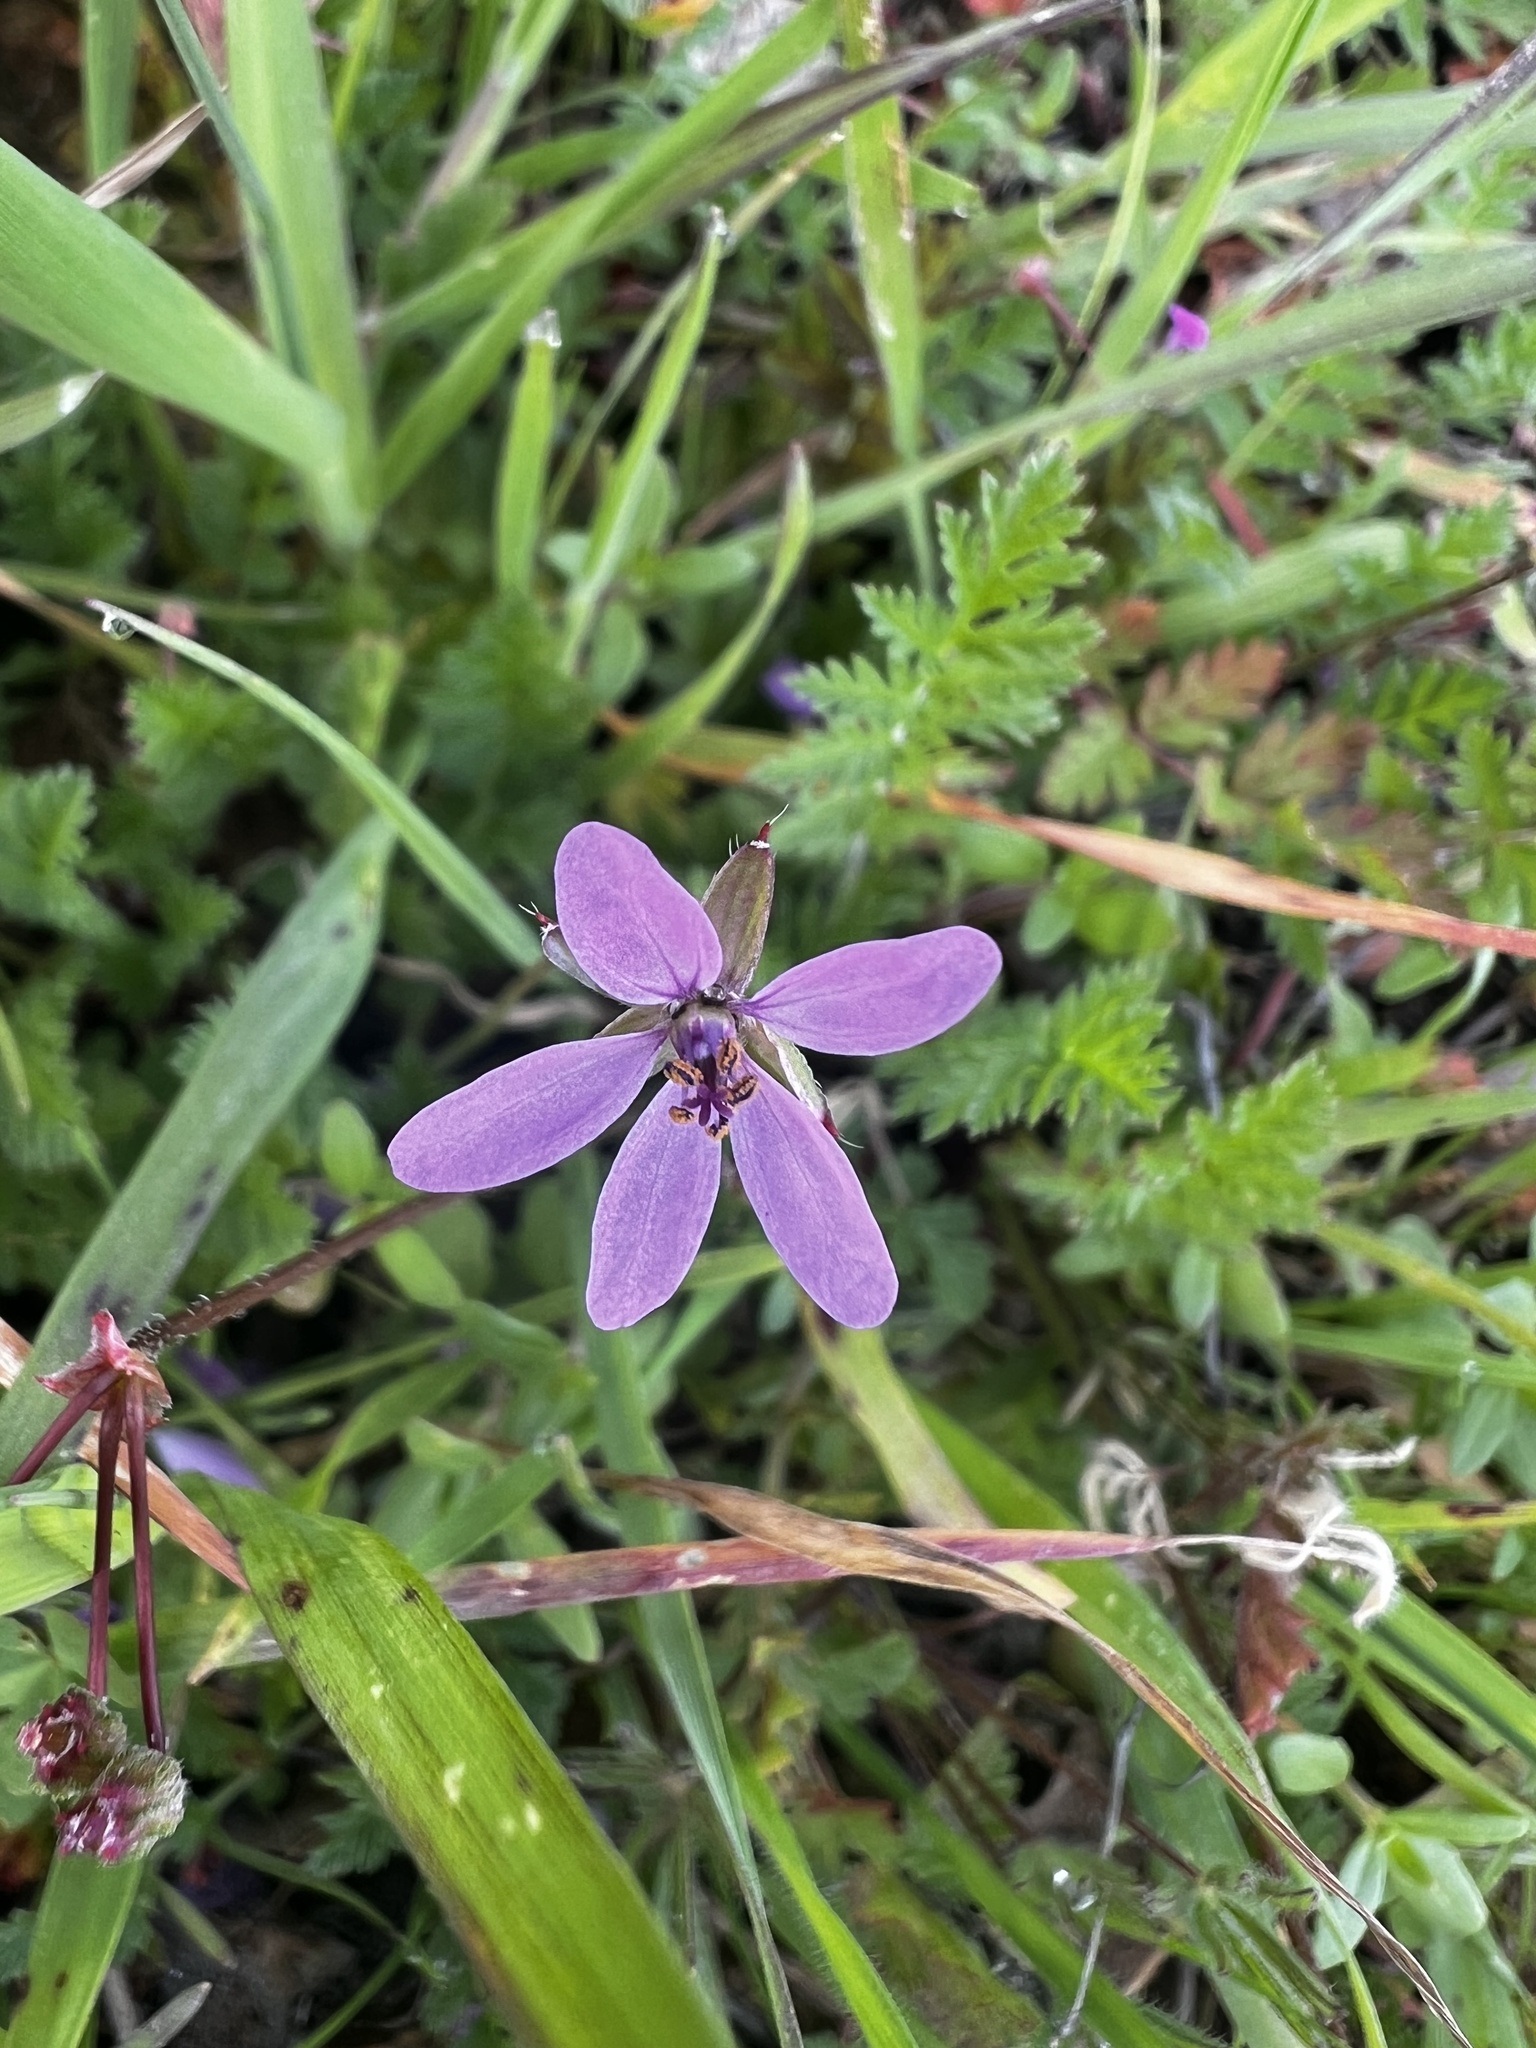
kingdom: Plantae
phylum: Tracheophyta
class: Magnoliopsida
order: Geraniales
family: Geraniaceae
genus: Erodium
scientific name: Erodium cicutarium
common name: Common stork's-bill
